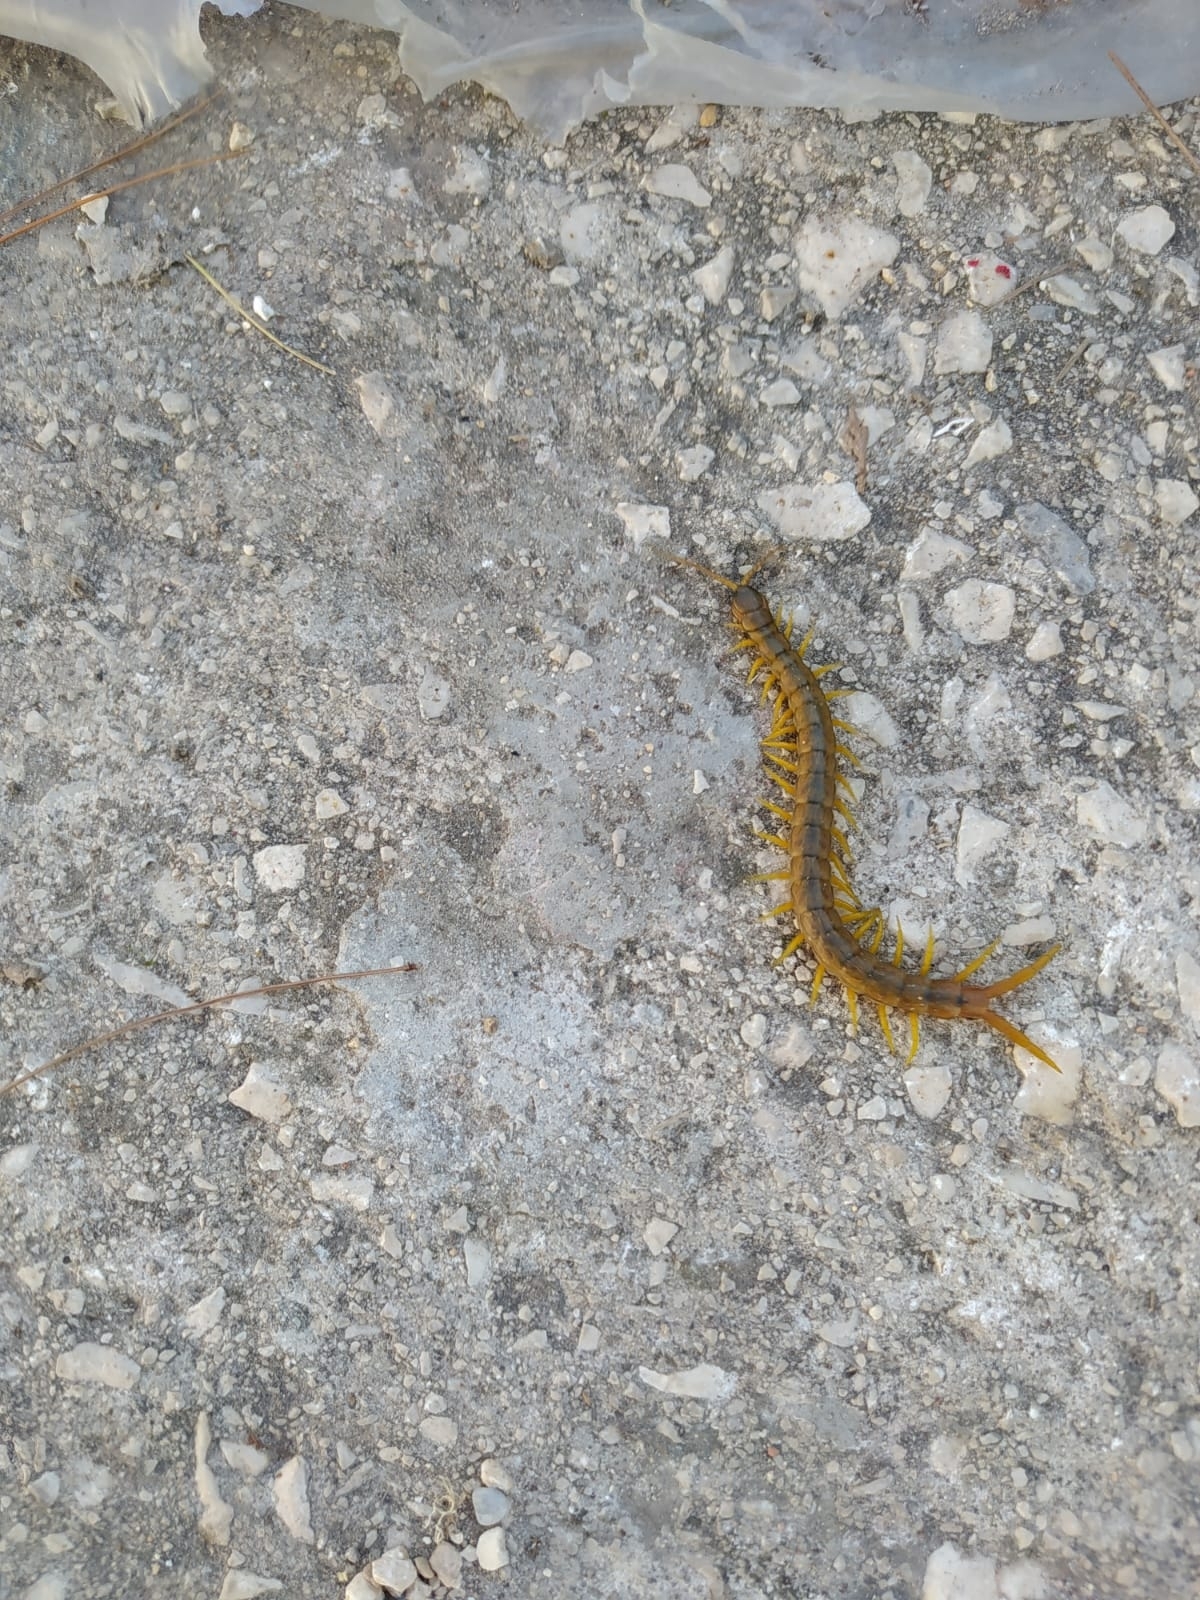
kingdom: Animalia
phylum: Arthropoda
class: Chilopoda
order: Scolopendromorpha
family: Scolopendridae
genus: Scolopendra
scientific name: Scolopendra cingulata
